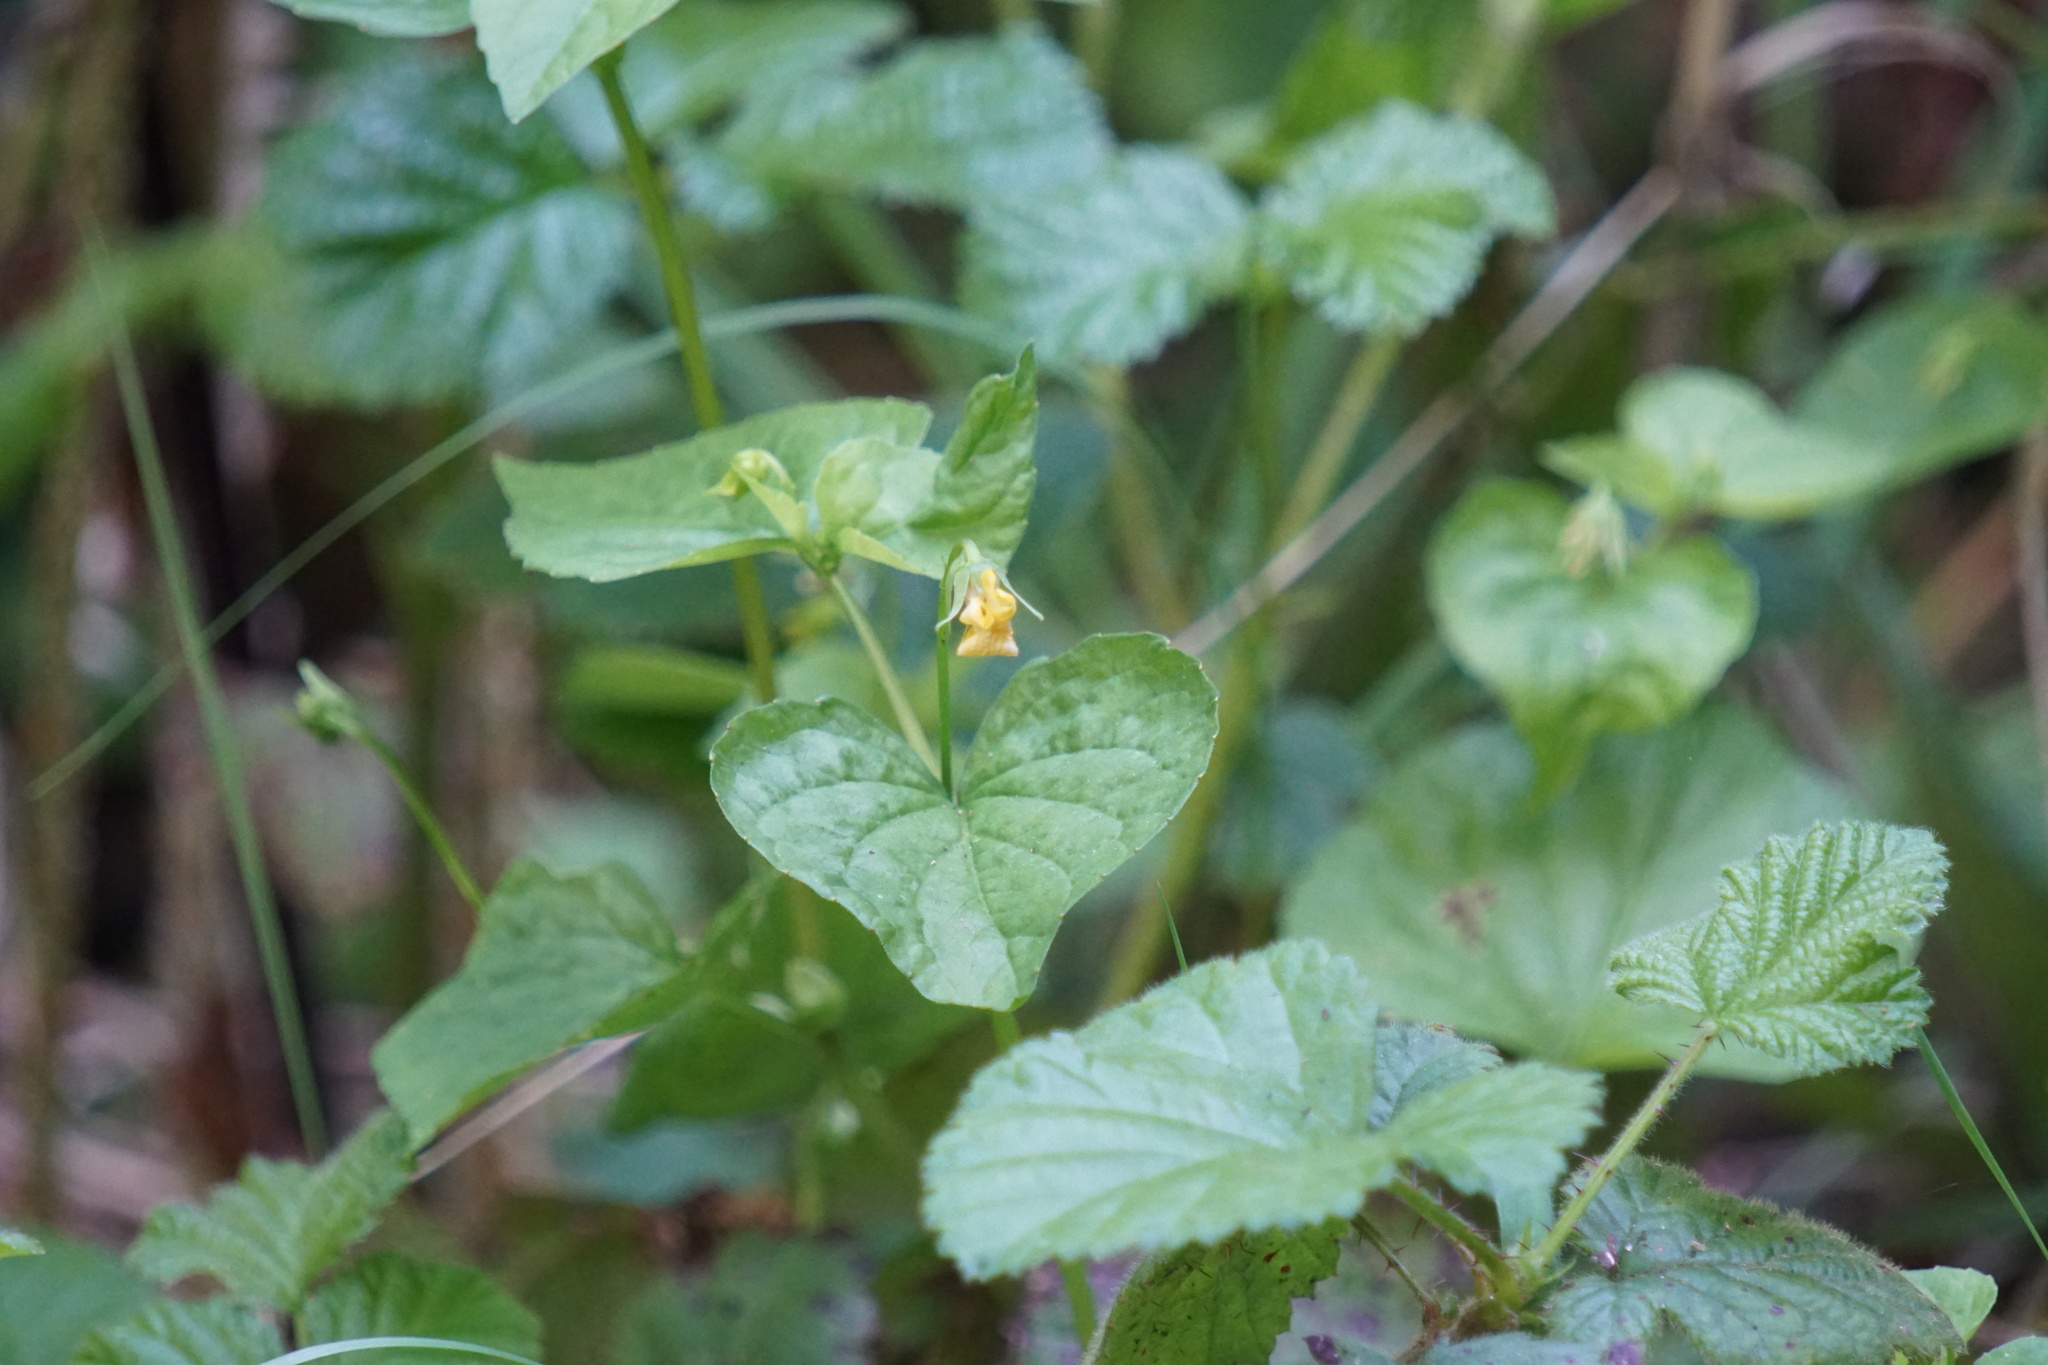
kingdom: Plantae
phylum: Tracheophyta
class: Magnoliopsida
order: Malpighiales
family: Violaceae
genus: Viola
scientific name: Viola glabella
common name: Stream violet
